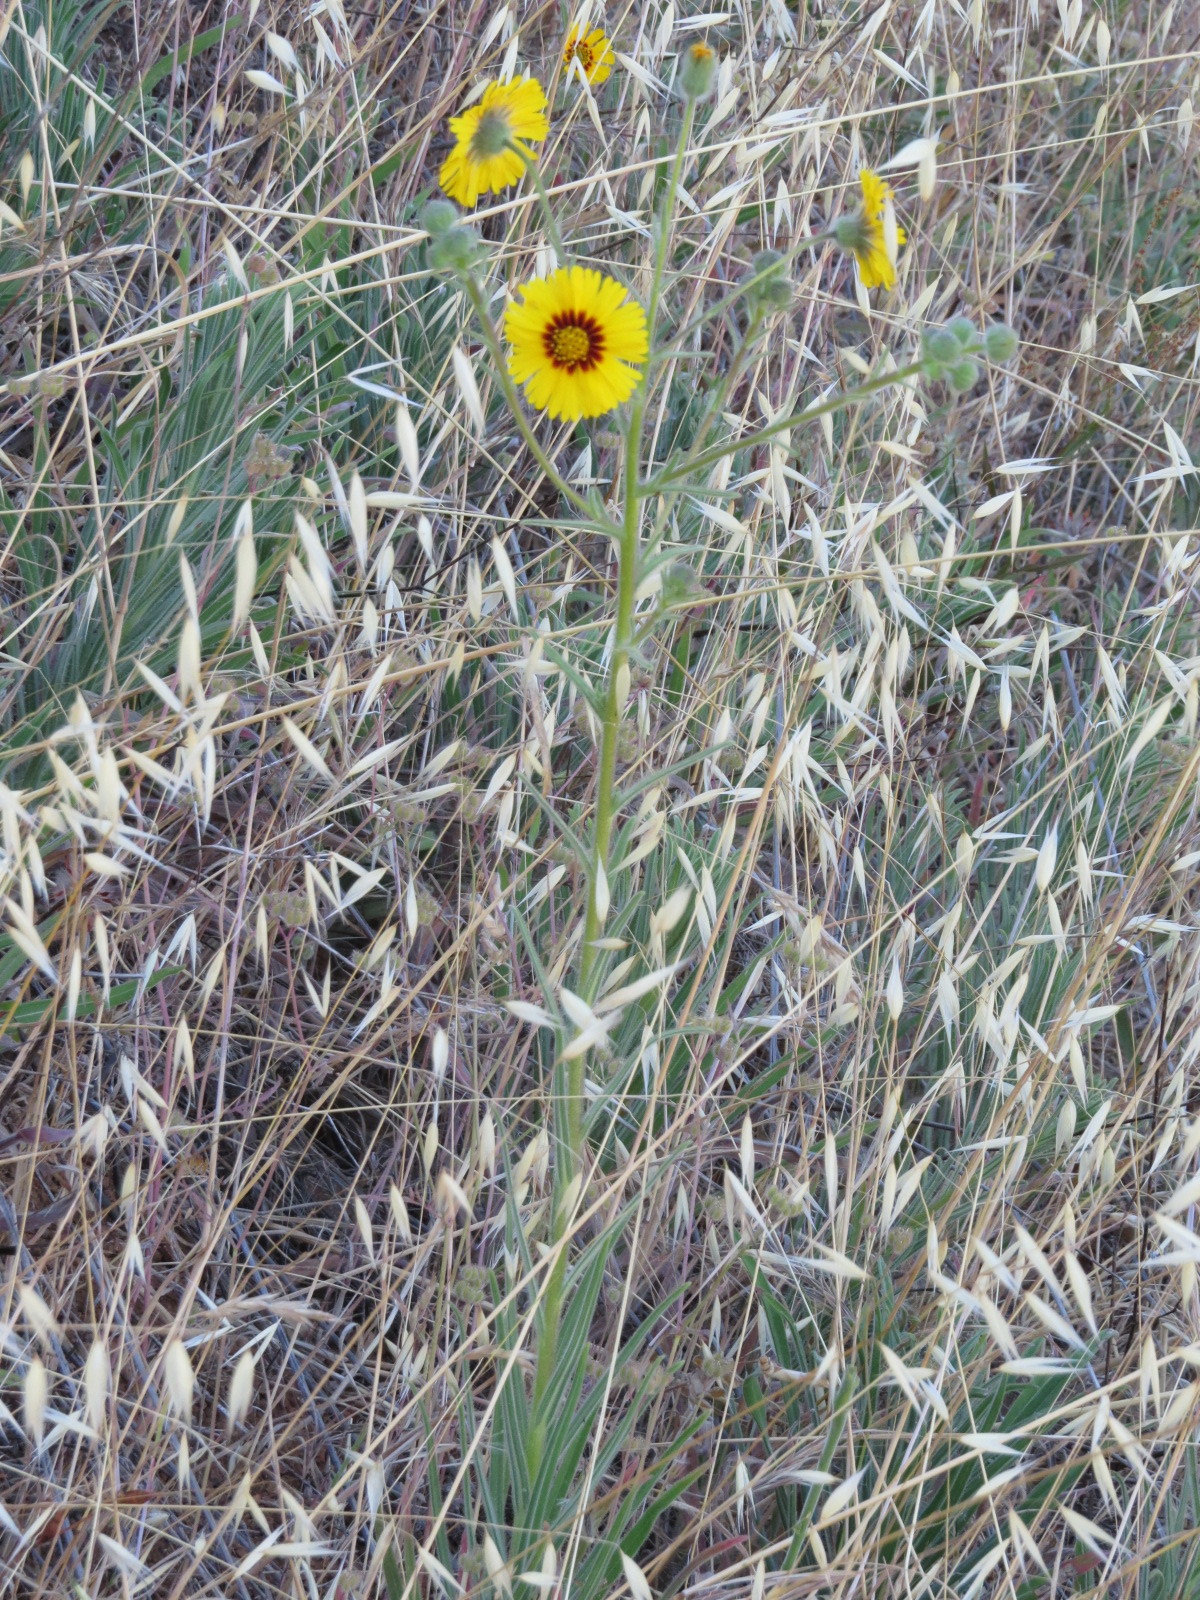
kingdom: Plantae
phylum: Tracheophyta
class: Magnoliopsida
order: Asterales
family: Asteraceae
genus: Madia
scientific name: Madia elegans
